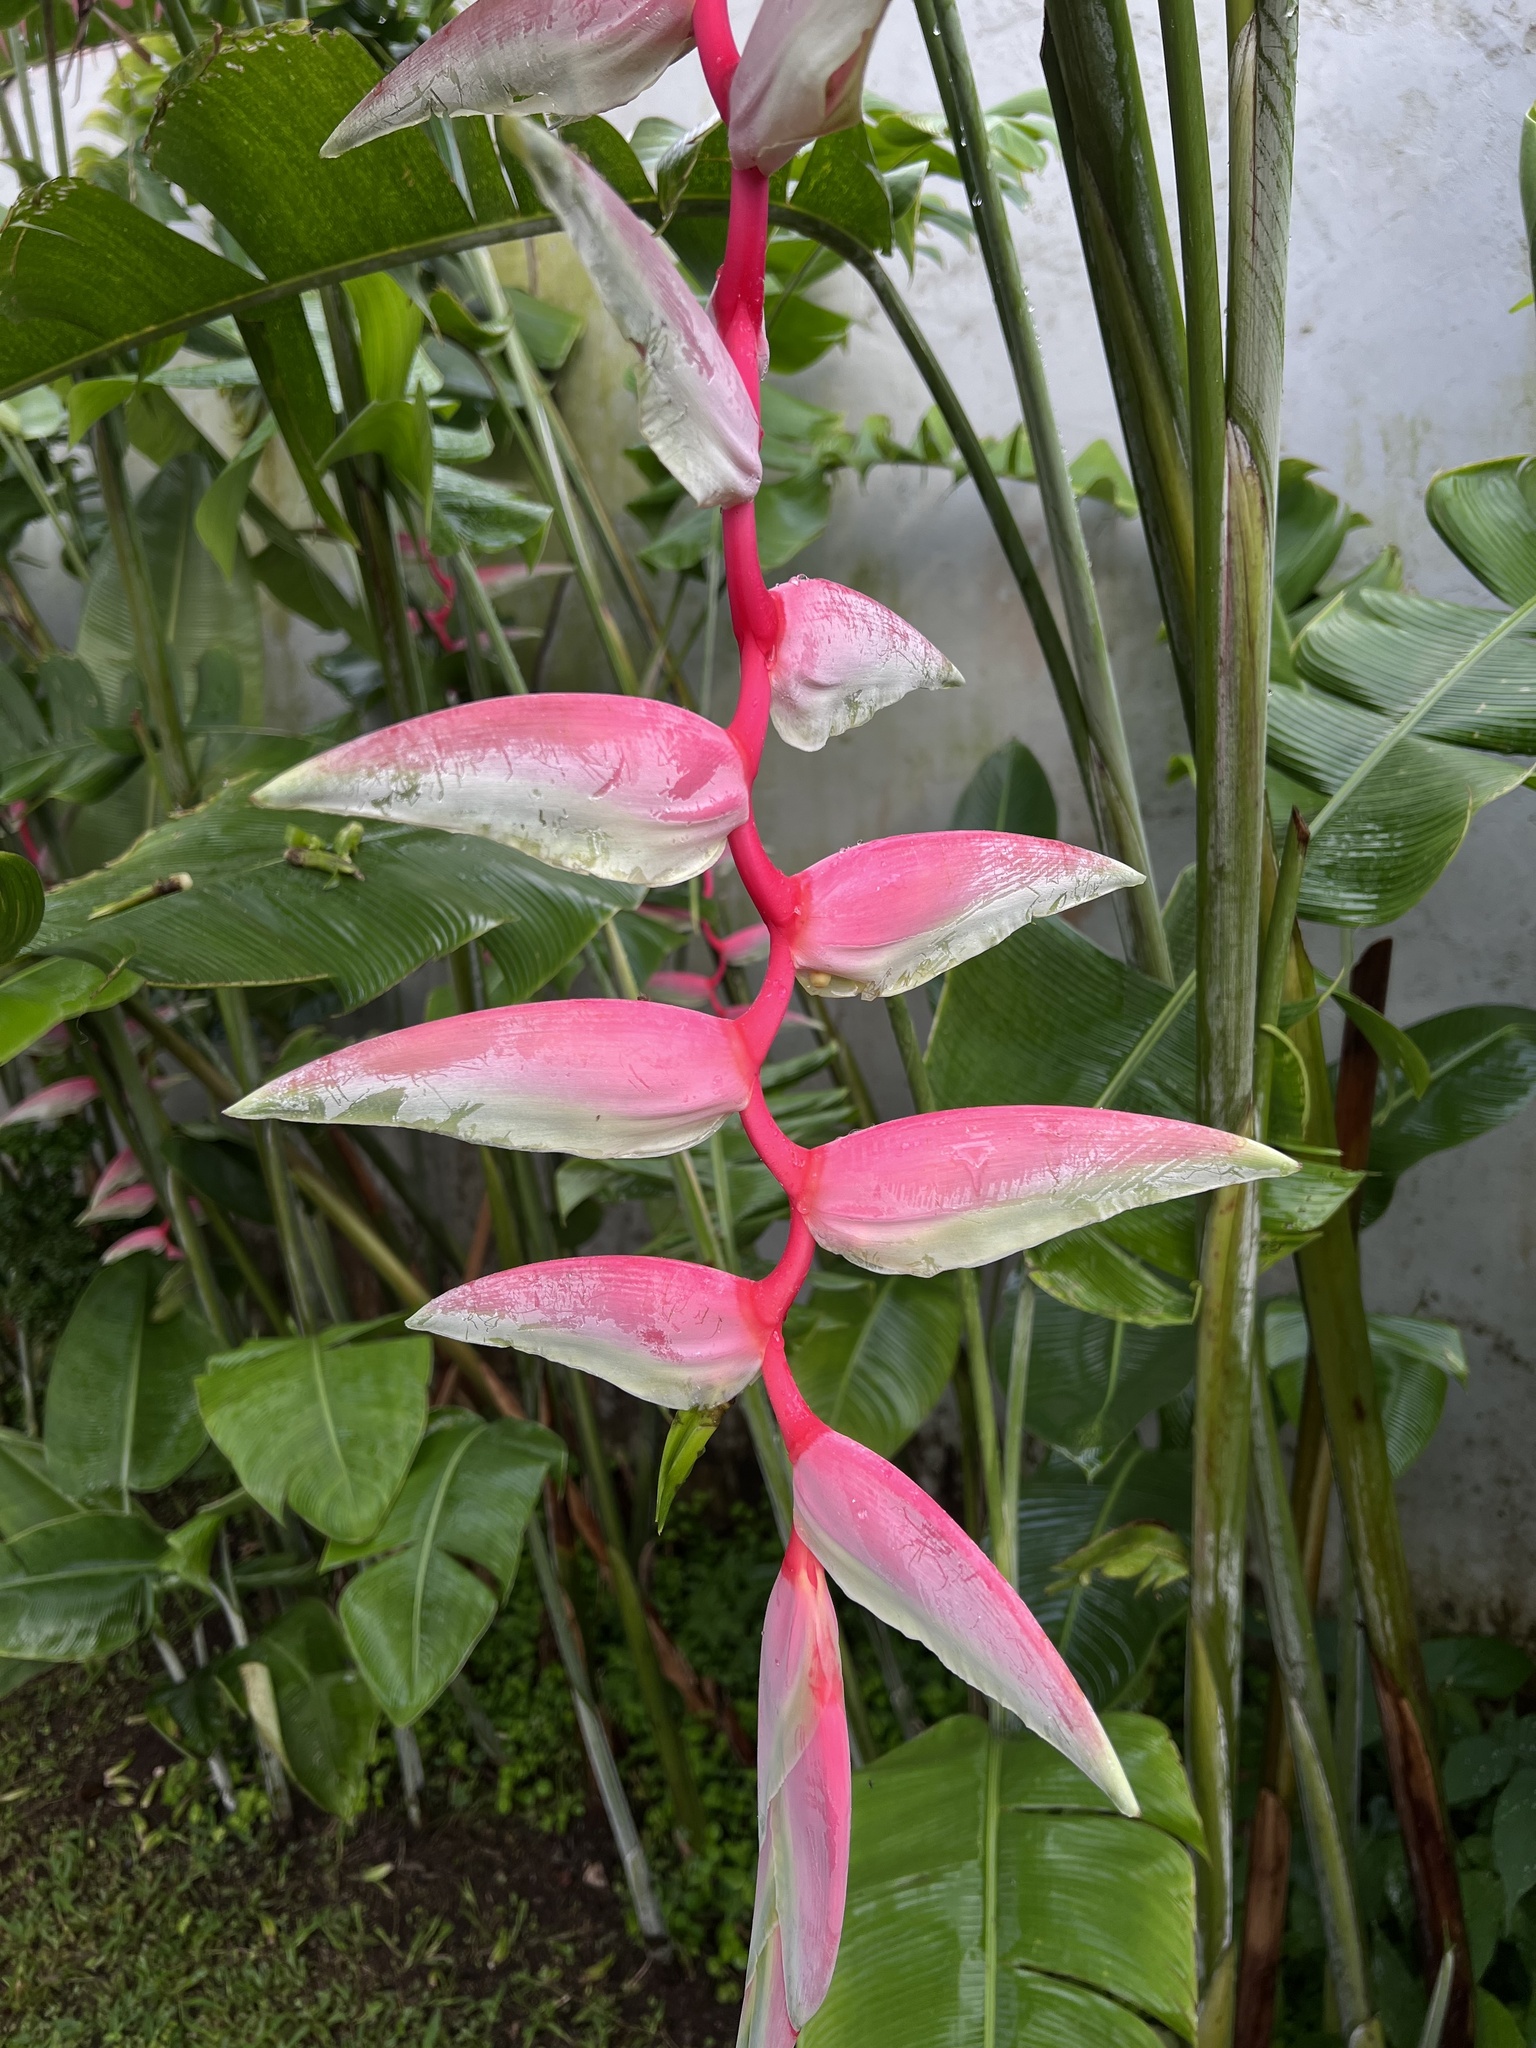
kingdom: Plantae
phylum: Tracheophyta
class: Liliopsida
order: Zingiberales
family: Heliconiaceae
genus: Heliconia
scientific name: Heliconia chartacea
